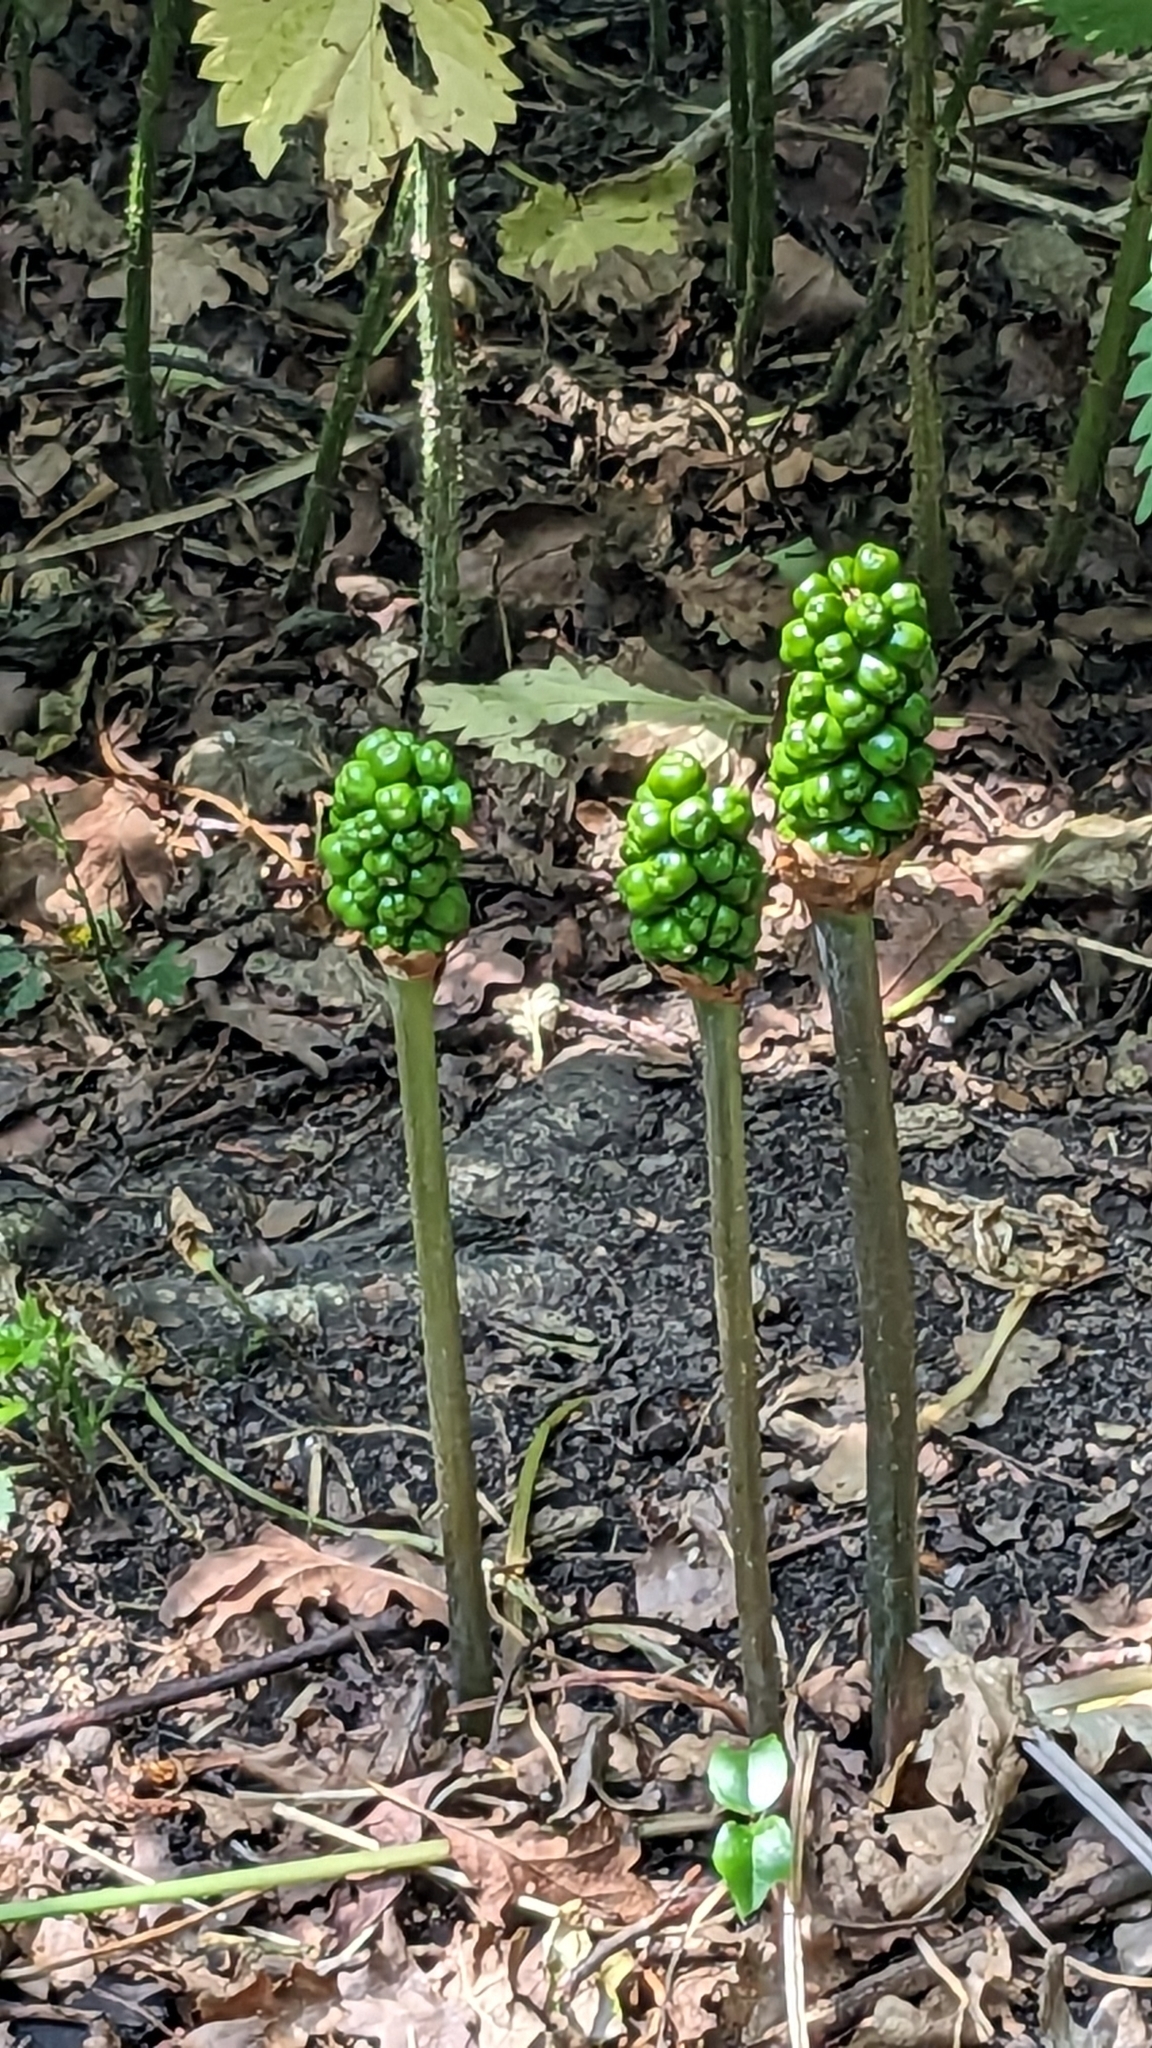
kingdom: Plantae
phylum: Tracheophyta
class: Liliopsida
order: Alismatales
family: Araceae
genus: Arum
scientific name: Arum maculatum
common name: Lords-and-ladies
